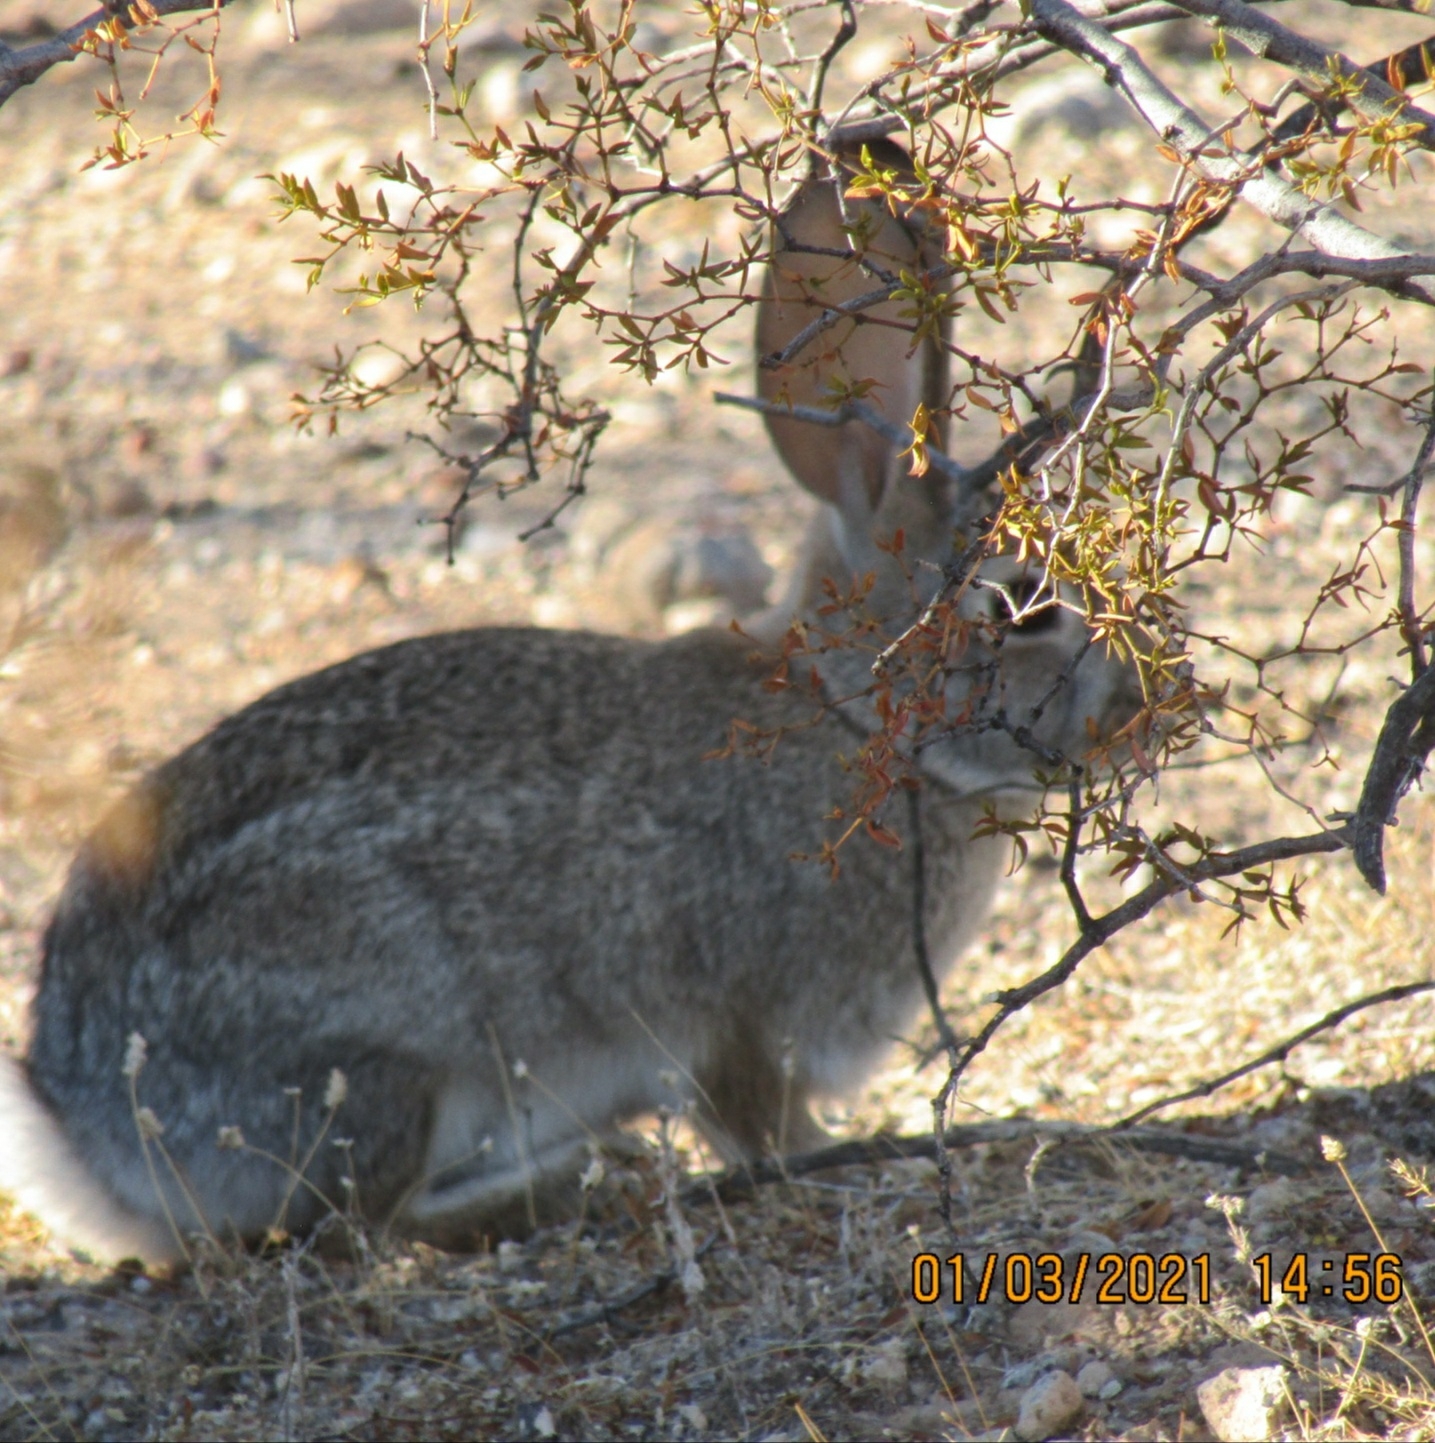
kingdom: Animalia
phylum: Chordata
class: Mammalia
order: Lagomorpha
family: Leporidae
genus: Sylvilagus
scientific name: Sylvilagus audubonii
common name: Desert cottontail
